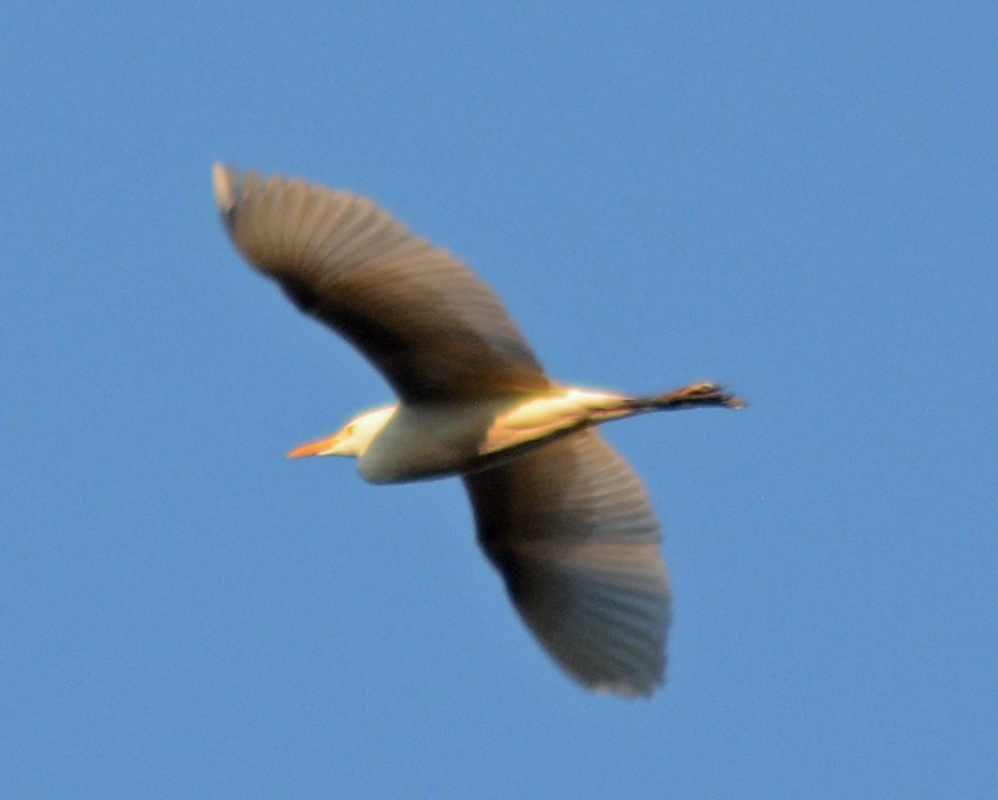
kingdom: Animalia
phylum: Chordata
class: Aves
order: Pelecaniformes
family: Ardeidae
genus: Bubulcus
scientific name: Bubulcus ibis
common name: Cattle egret
